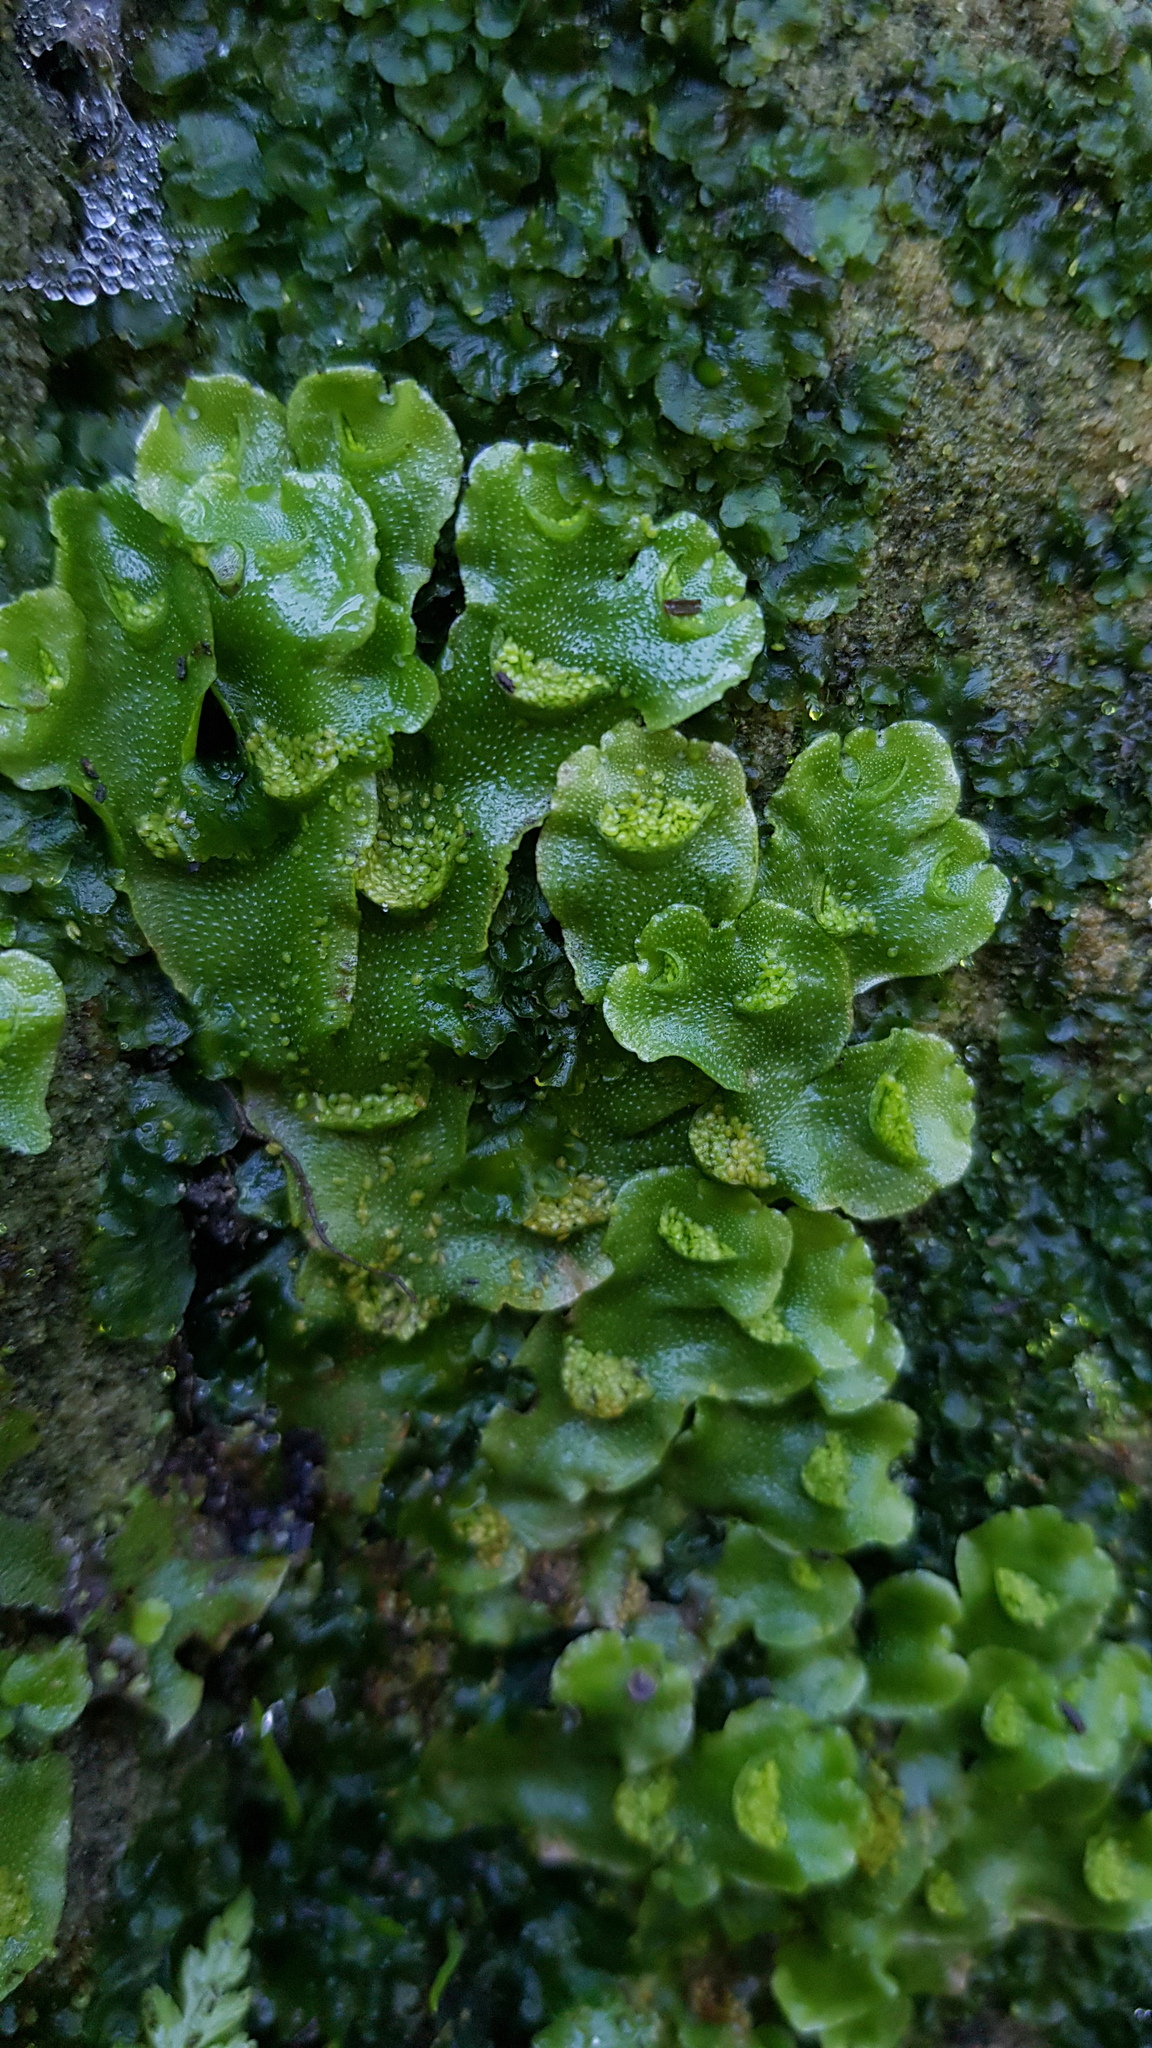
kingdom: Plantae
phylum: Marchantiophyta
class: Marchantiopsida
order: Lunulariales
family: Lunulariaceae
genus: Lunularia
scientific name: Lunularia cruciata
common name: Crescent-cup liverwort
